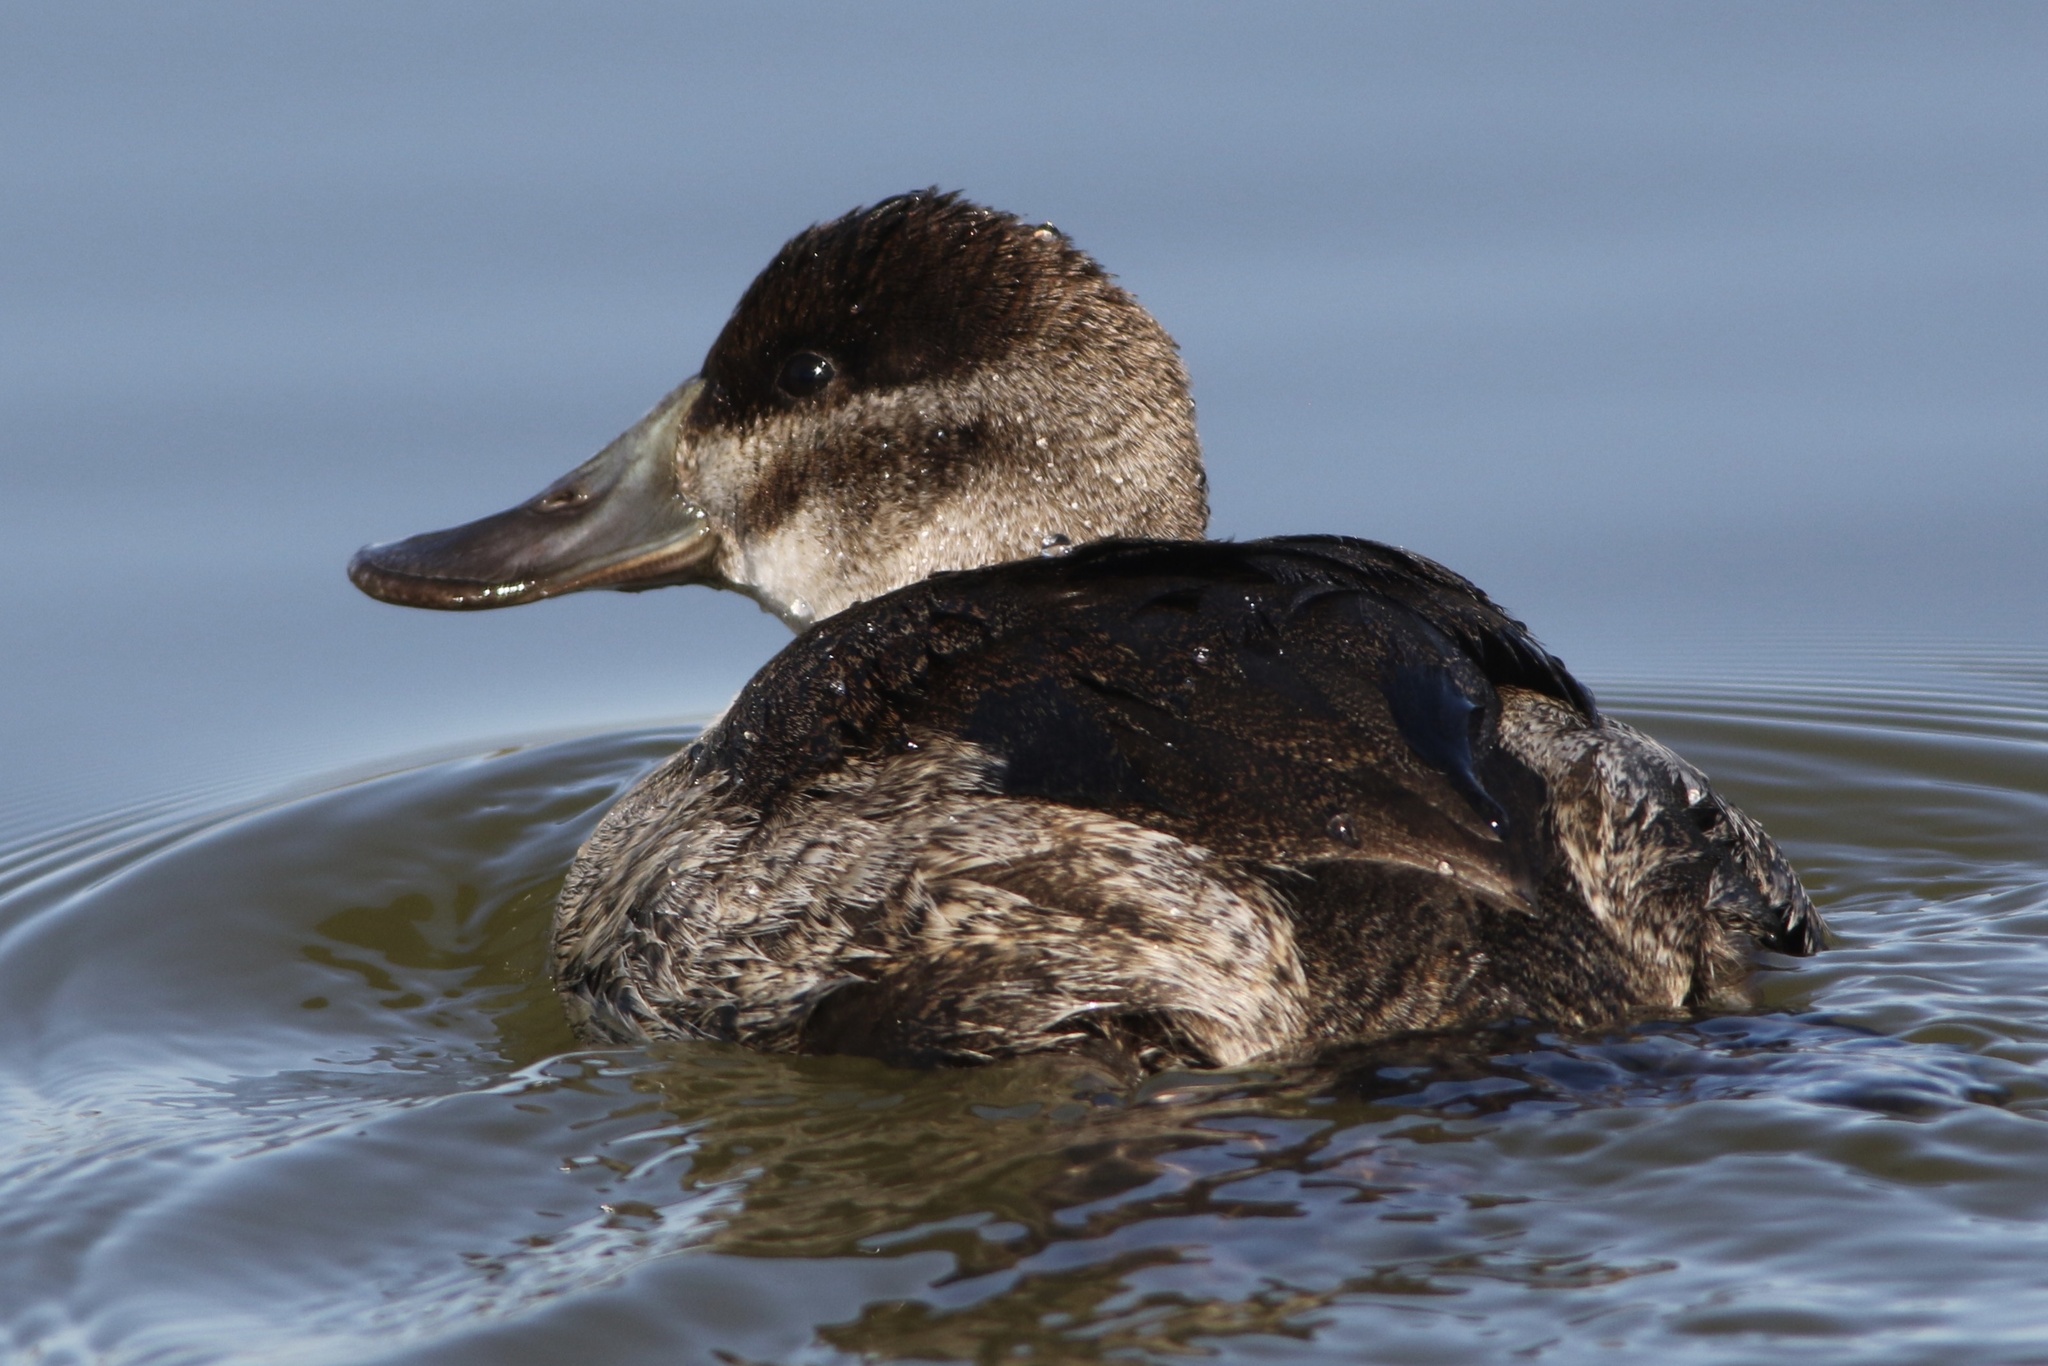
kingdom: Animalia
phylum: Chordata
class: Aves
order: Anseriformes
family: Anatidae
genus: Oxyura
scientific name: Oxyura jamaicensis
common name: Ruddy duck
